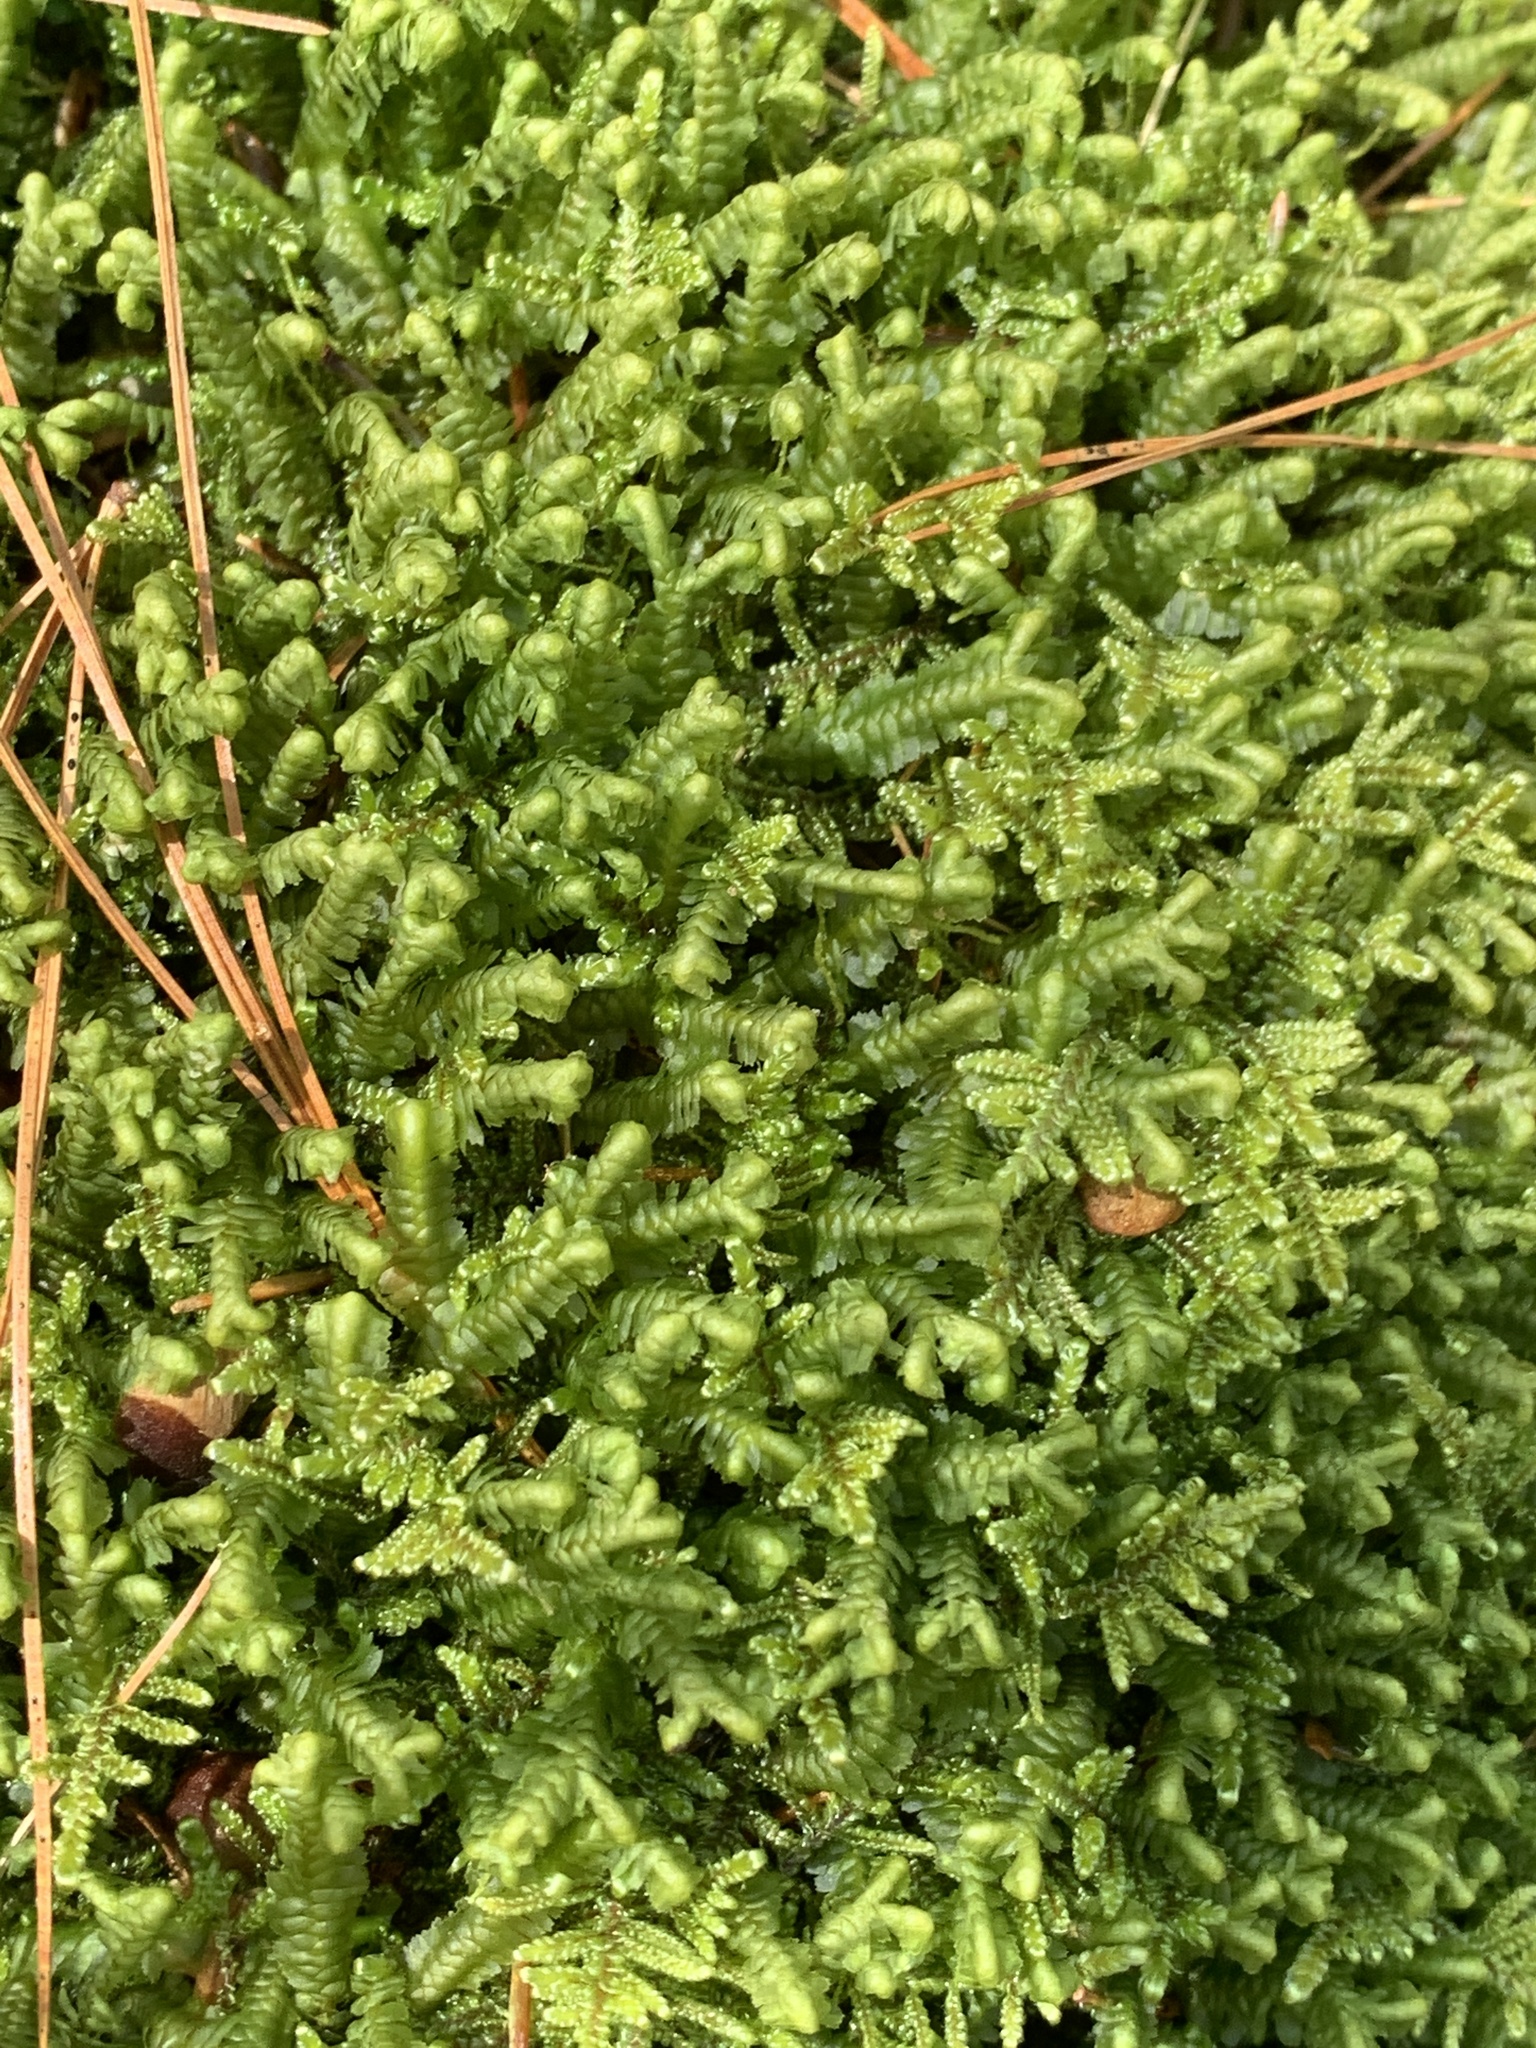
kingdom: Plantae
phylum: Marchantiophyta
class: Jungermanniopsida
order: Jungermanniales
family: Lepidoziaceae
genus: Bazzania
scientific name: Bazzania trilobata
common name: Three-lobed whipwort
